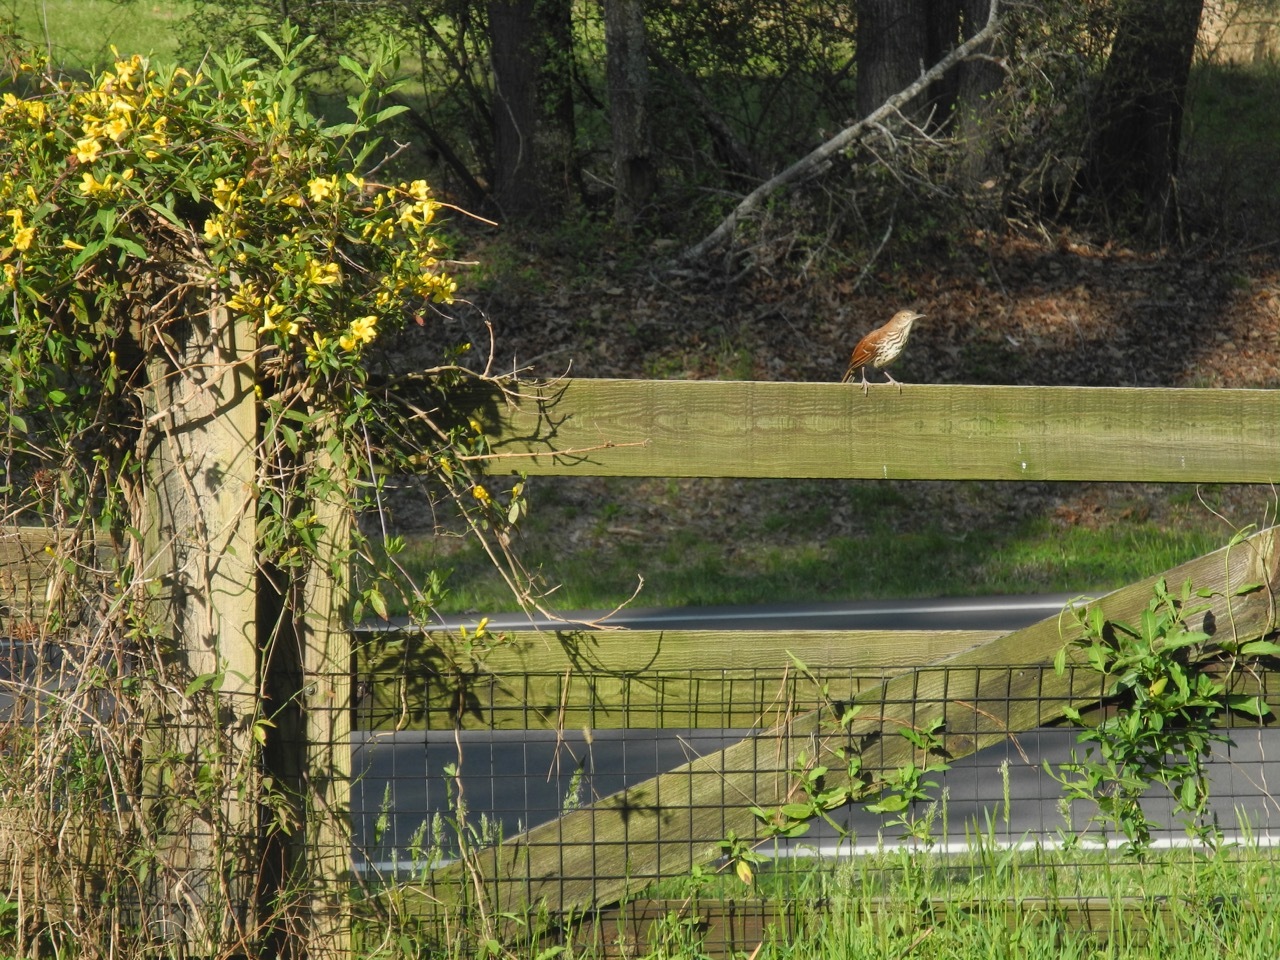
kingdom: Animalia
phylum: Chordata
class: Aves
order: Passeriformes
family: Mimidae
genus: Toxostoma
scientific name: Toxostoma rufum
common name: Brown thrasher
